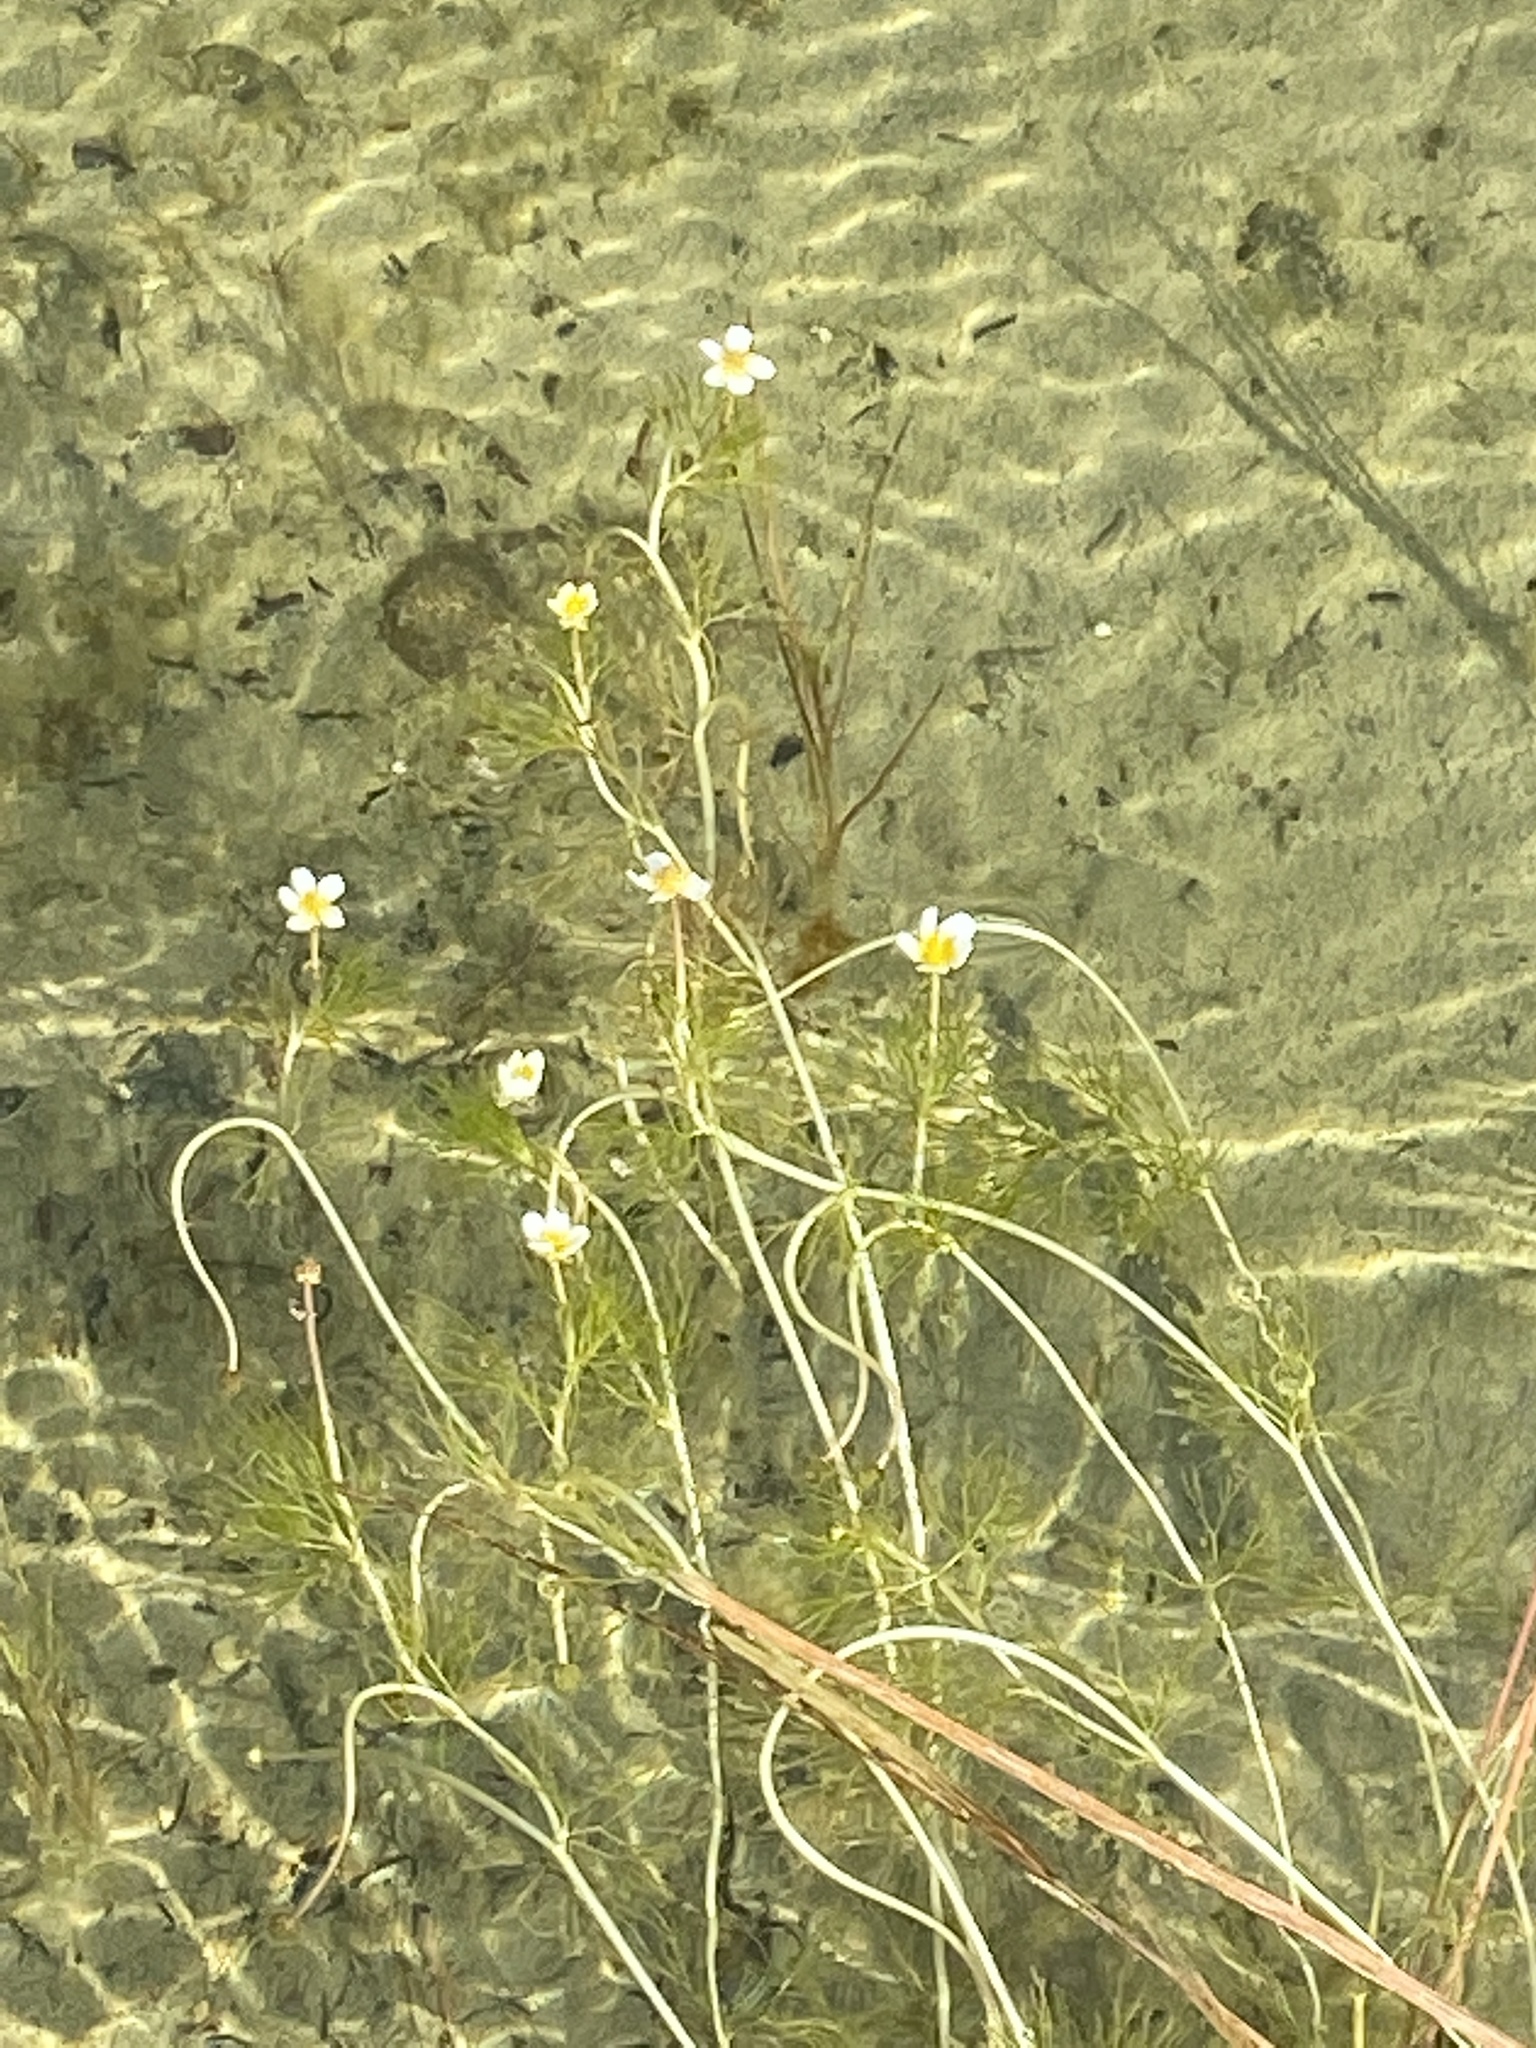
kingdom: Plantae
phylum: Tracheophyta
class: Magnoliopsida
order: Ranunculales
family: Ranunculaceae
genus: Ranunculus
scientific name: Ranunculus trichophyllus
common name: Thread-leaved water-crowfoot
